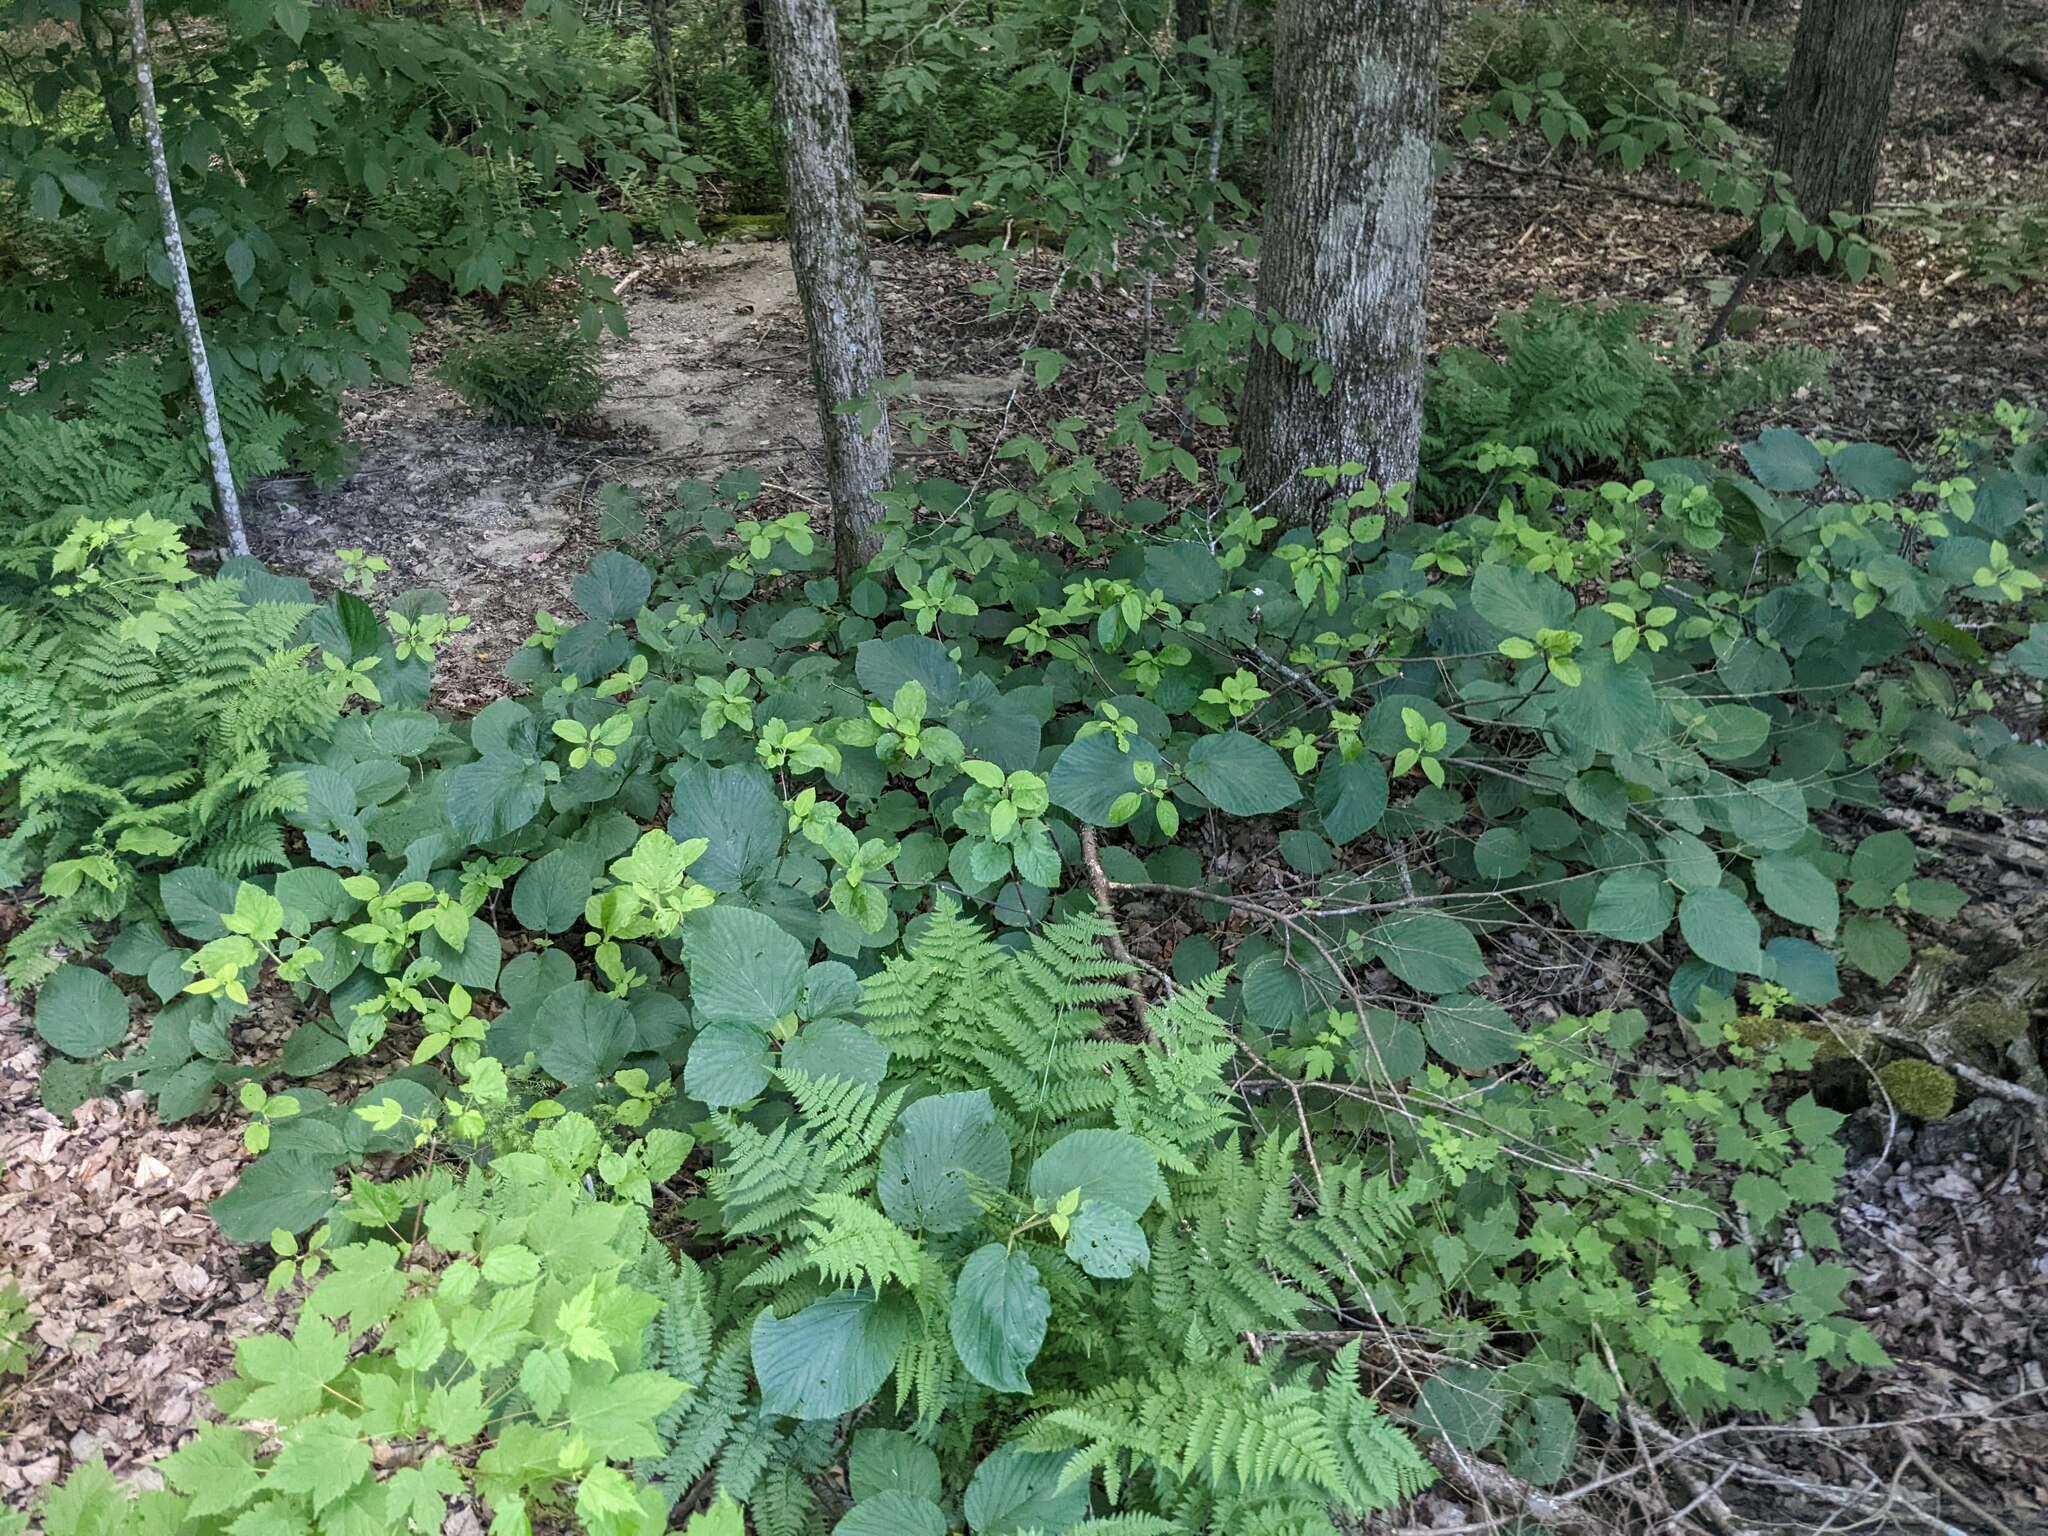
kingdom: Plantae
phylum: Tracheophyta
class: Magnoliopsida
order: Dipsacales
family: Viburnaceae
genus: Viburnum
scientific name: Viburnum lantanoides
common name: Hobblebush
